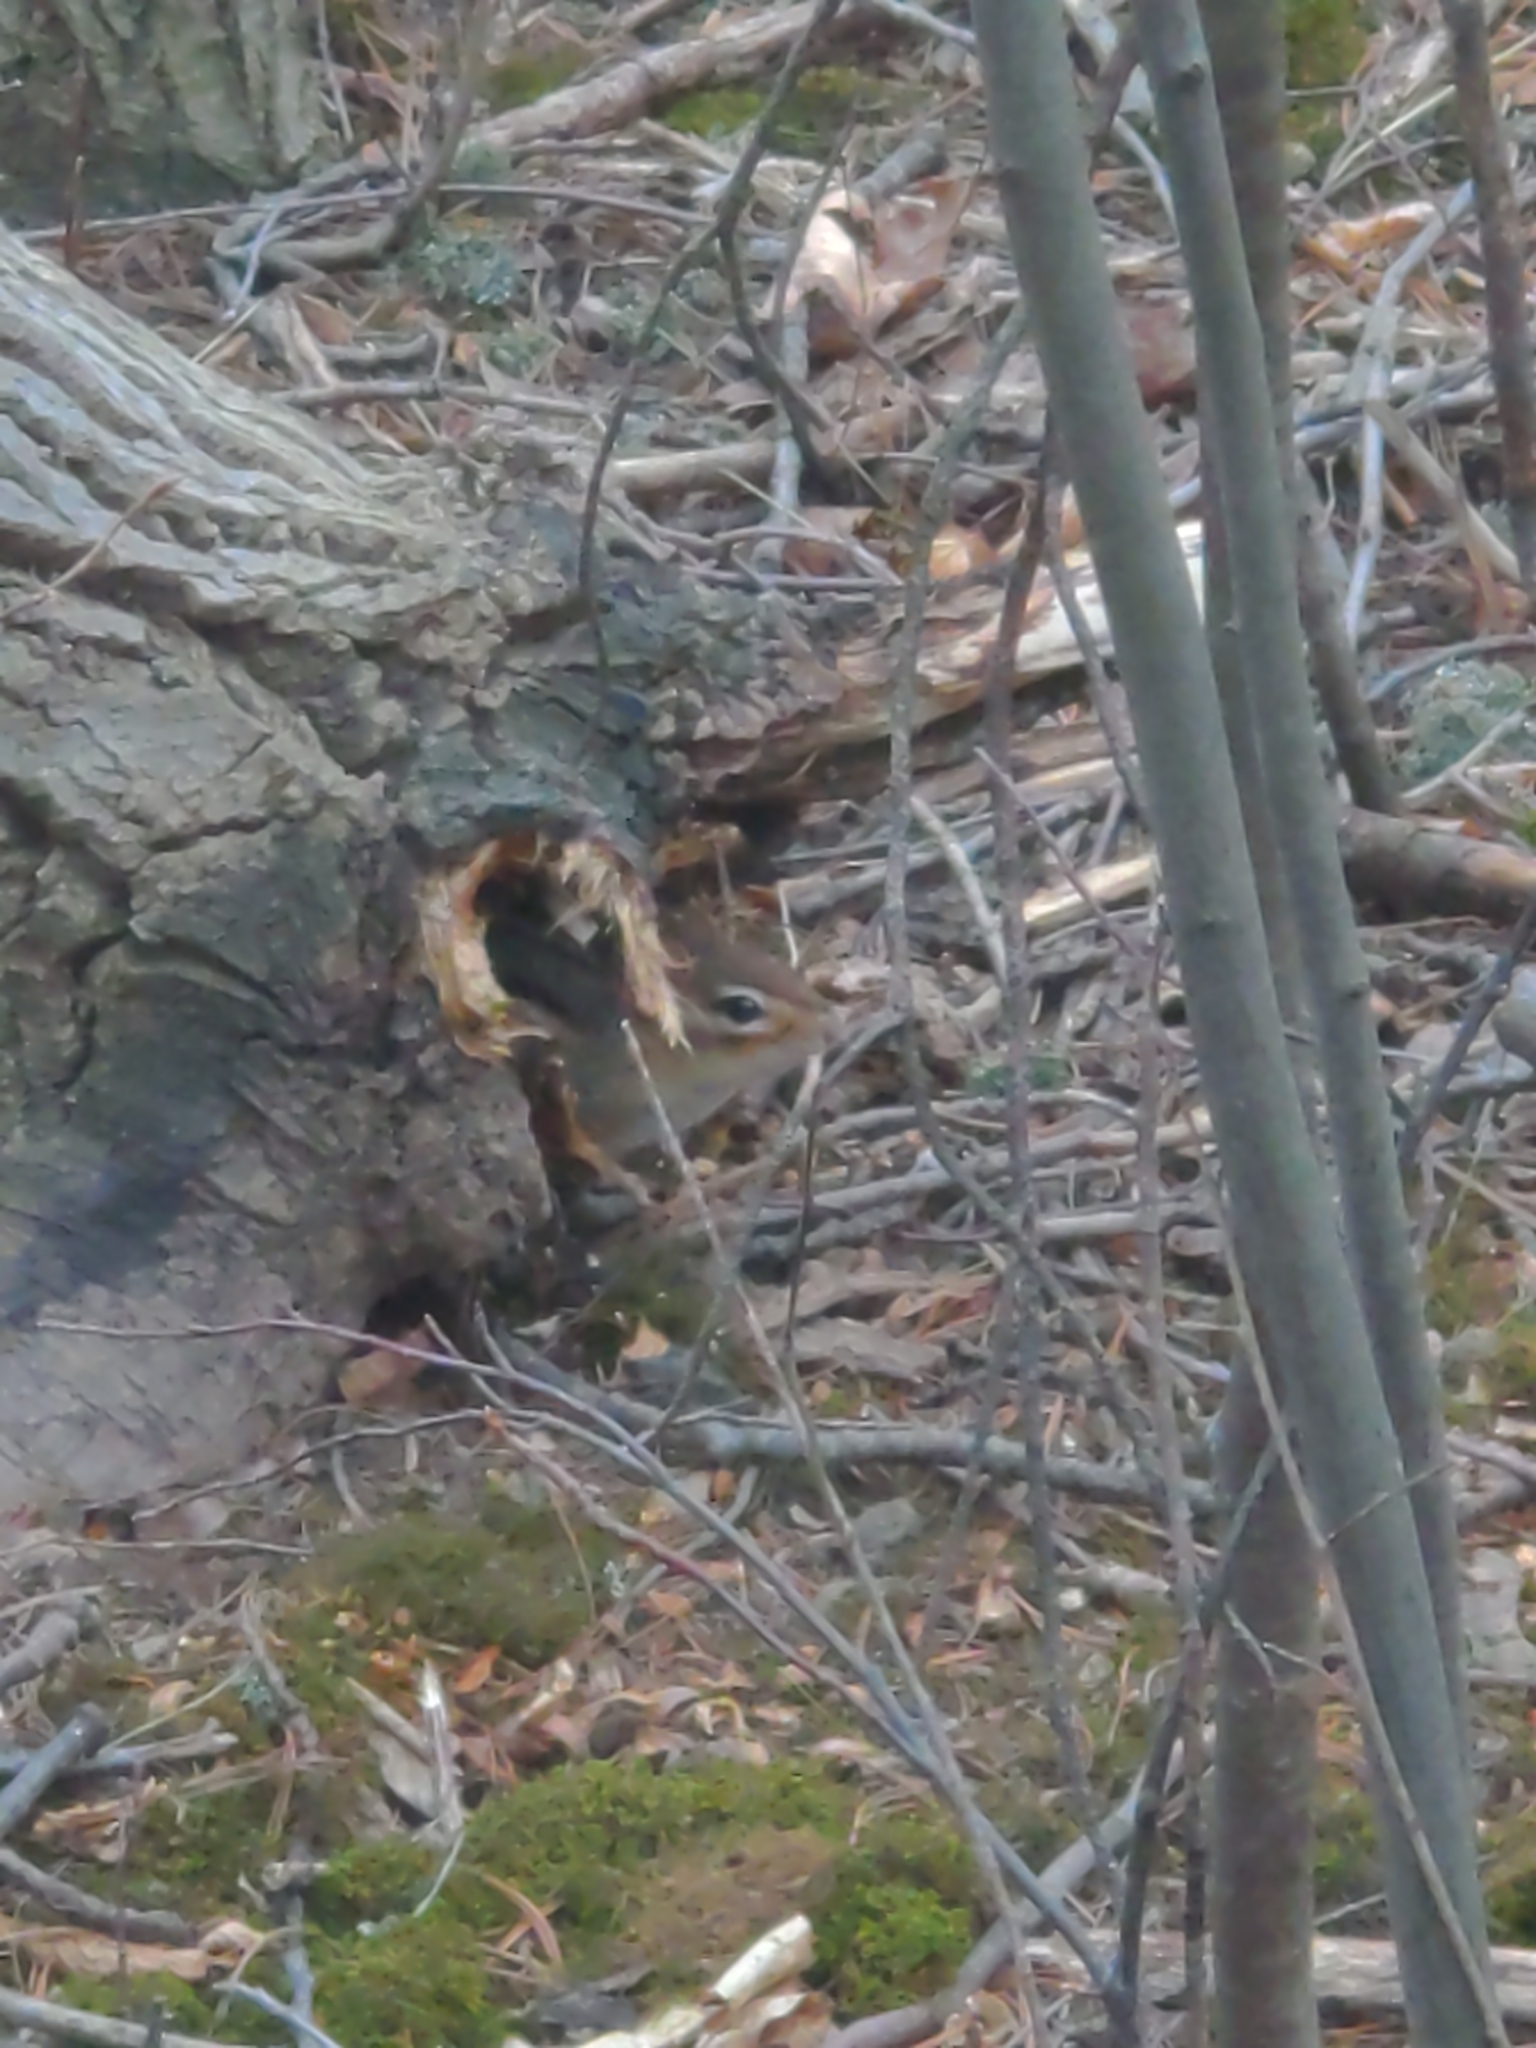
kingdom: Animalia
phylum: Chordata
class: Mammalia
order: Rodentia
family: Sciuridae
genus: Tamias
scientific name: Tamias striatus
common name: Eastern chipmunk
